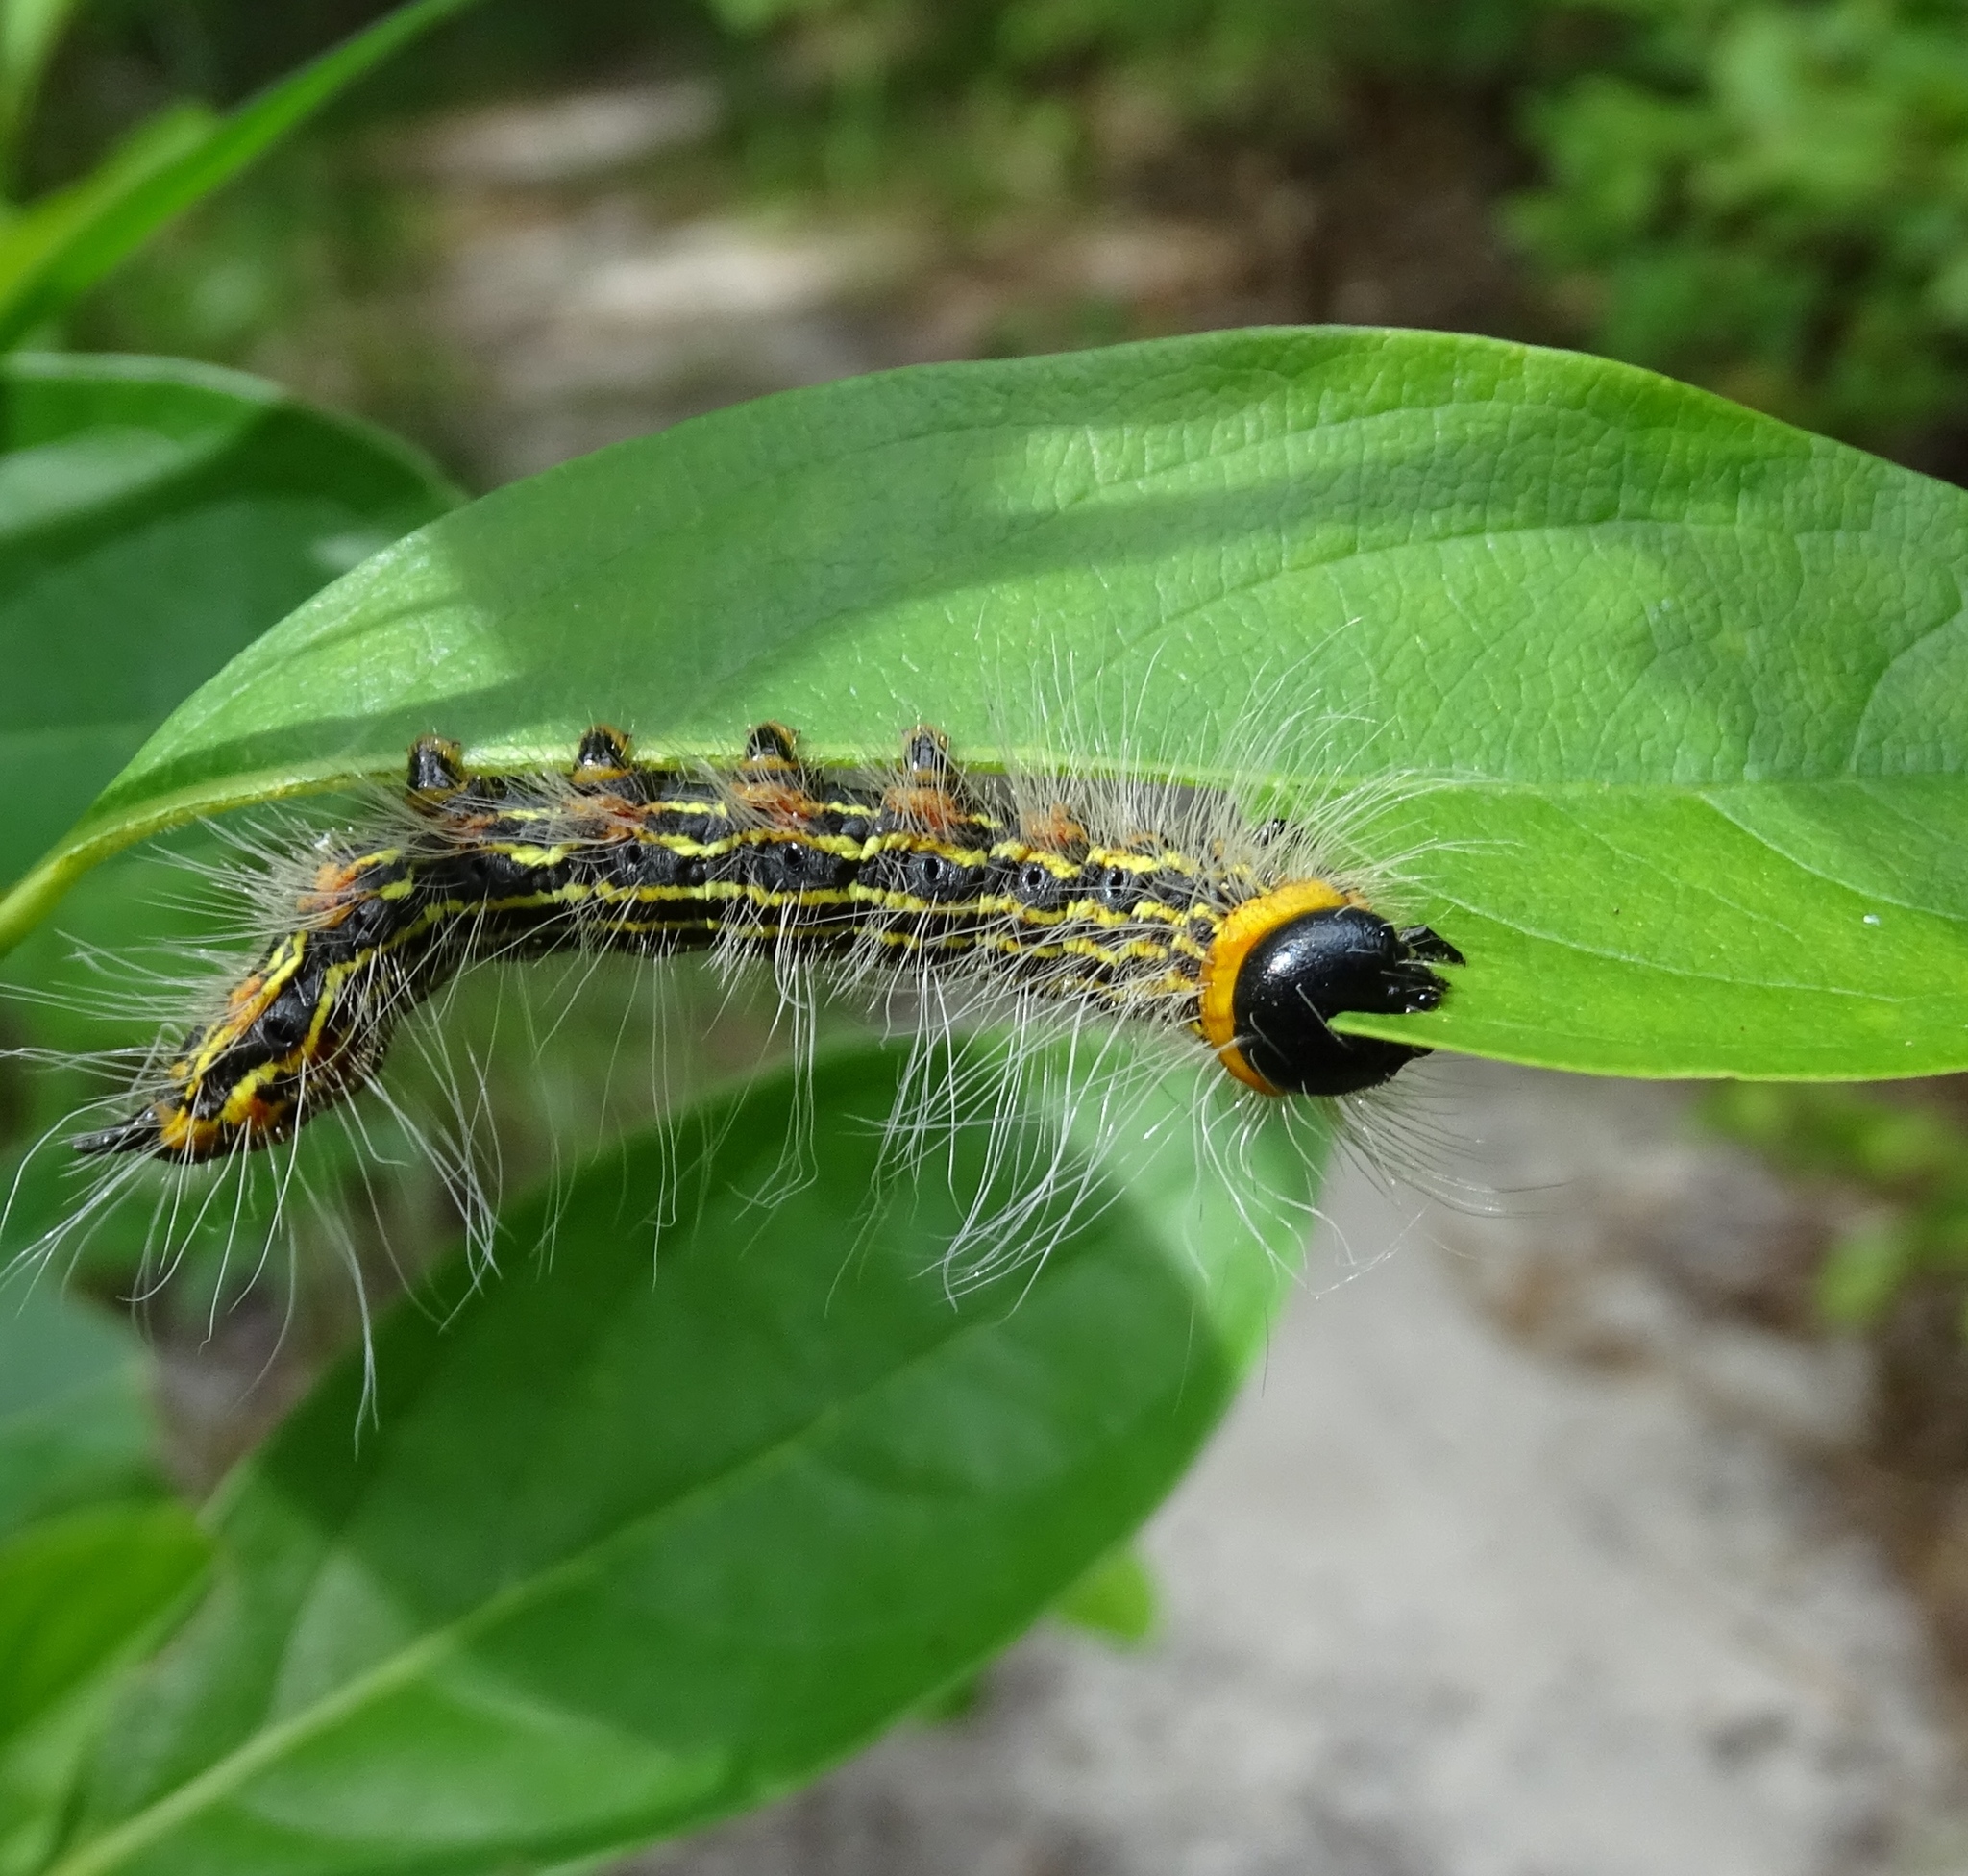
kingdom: Animalia
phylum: Arthropoda
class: Insecta
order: Lepidoptera
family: Notodontidae
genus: Datana
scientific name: Datana ministra
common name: Yellow-necked caterpillar moth
